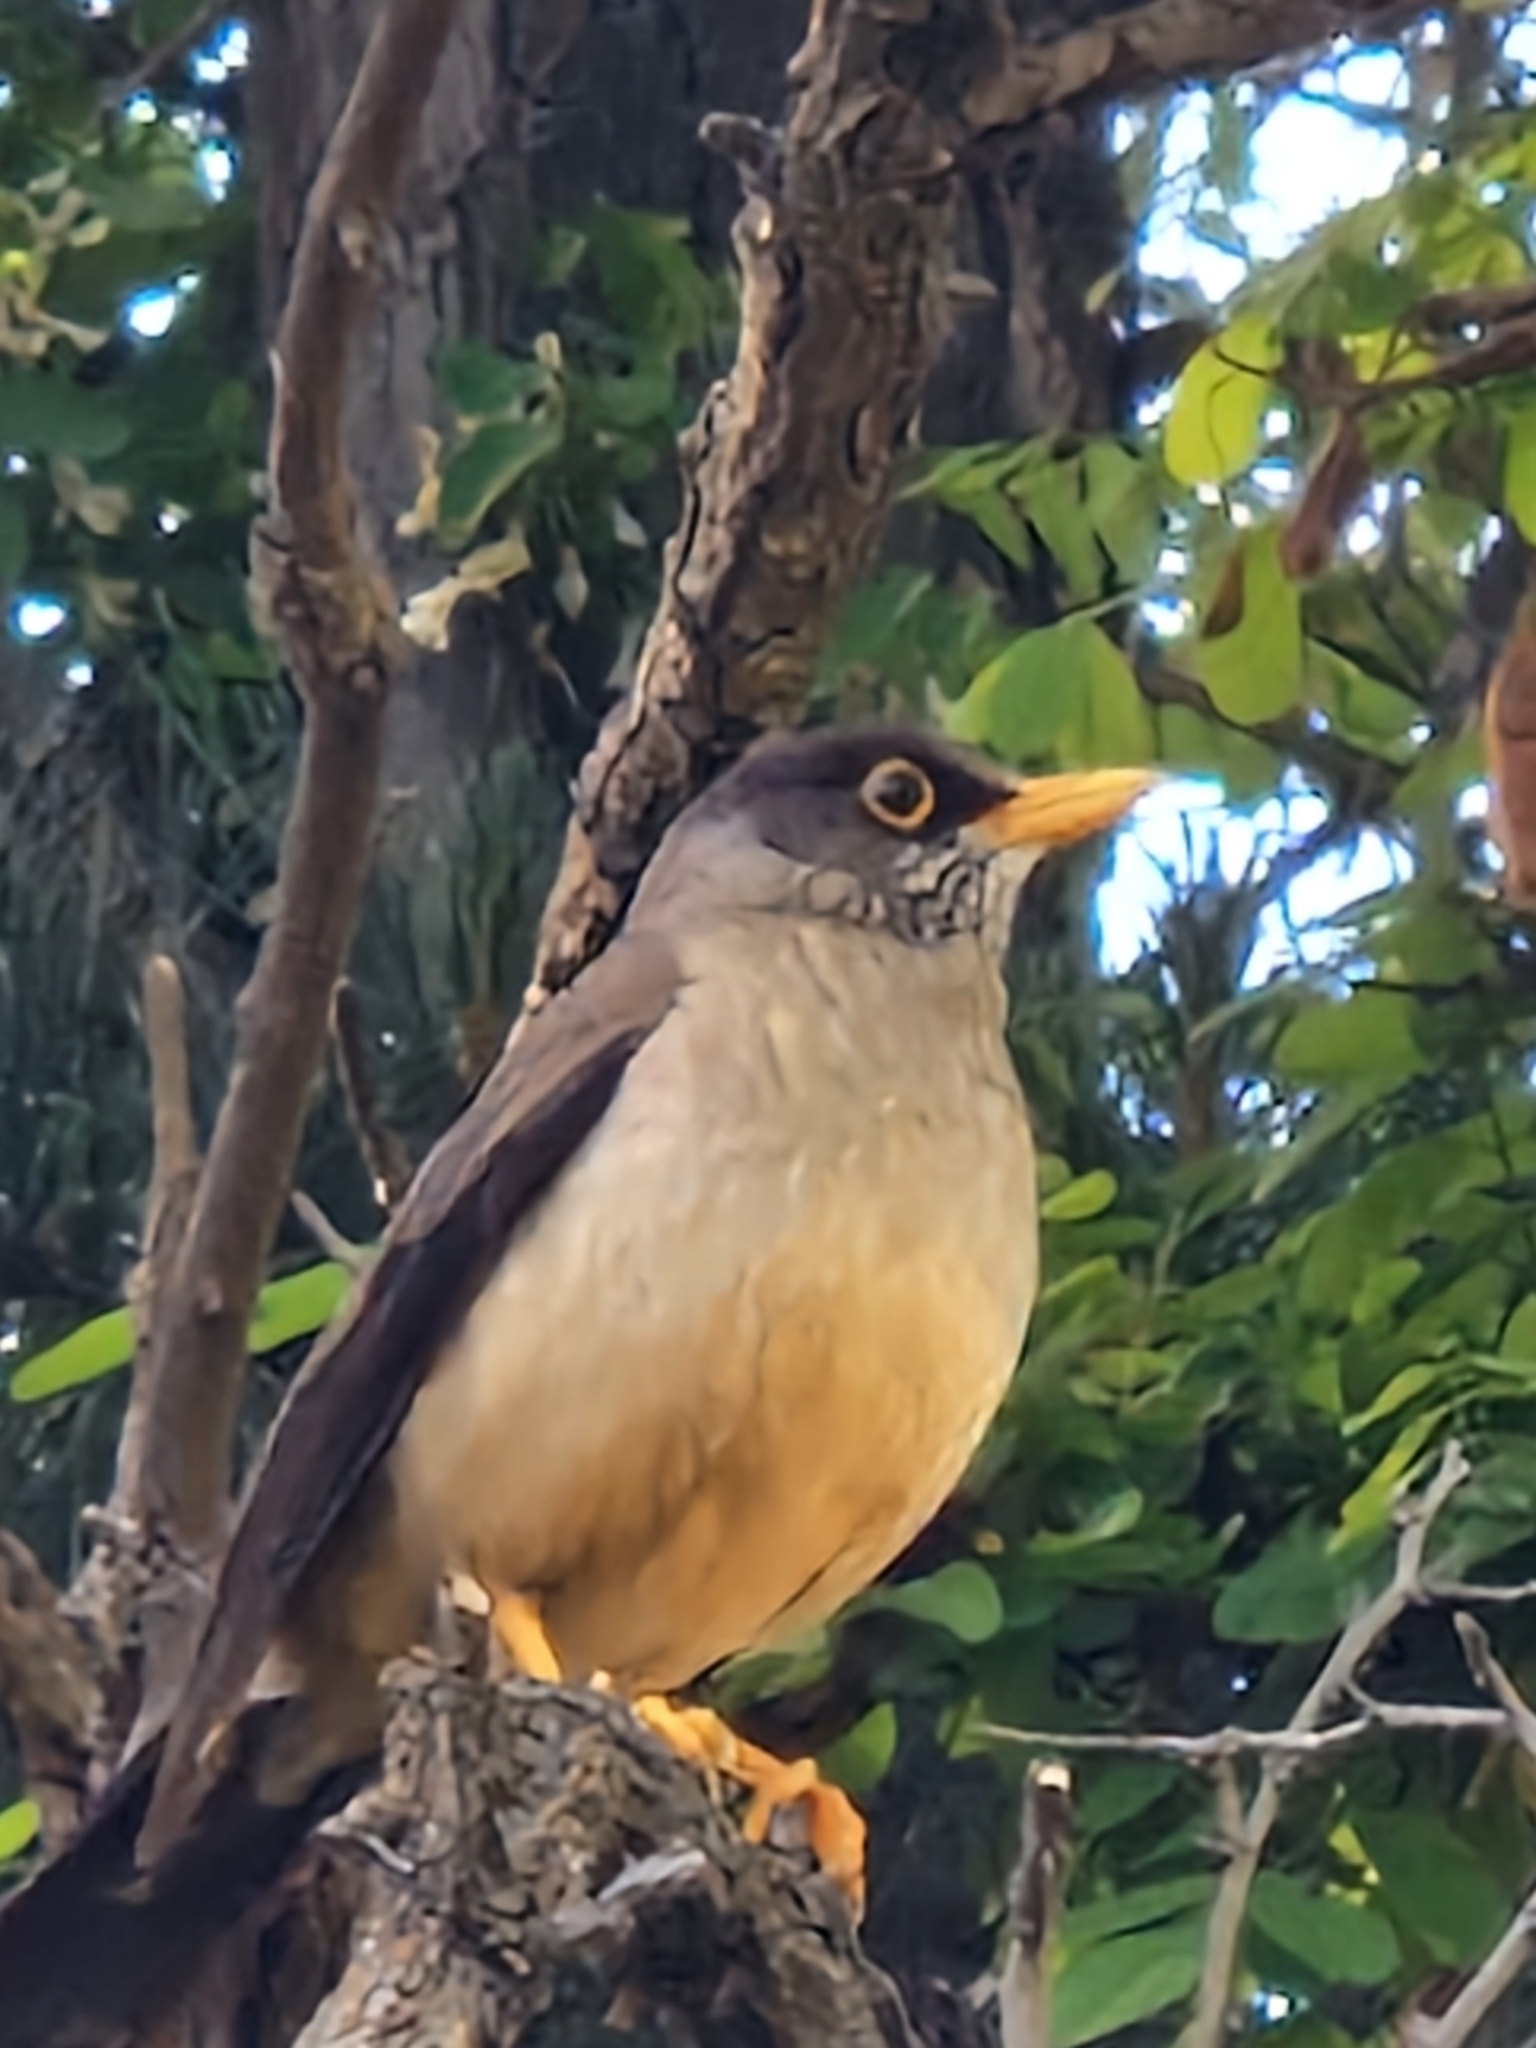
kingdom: Animalia
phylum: Chordata
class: Aves
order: Passeriformes
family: Turdidae
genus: Turdus
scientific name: Turdus falcklandii
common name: Austral thrush
